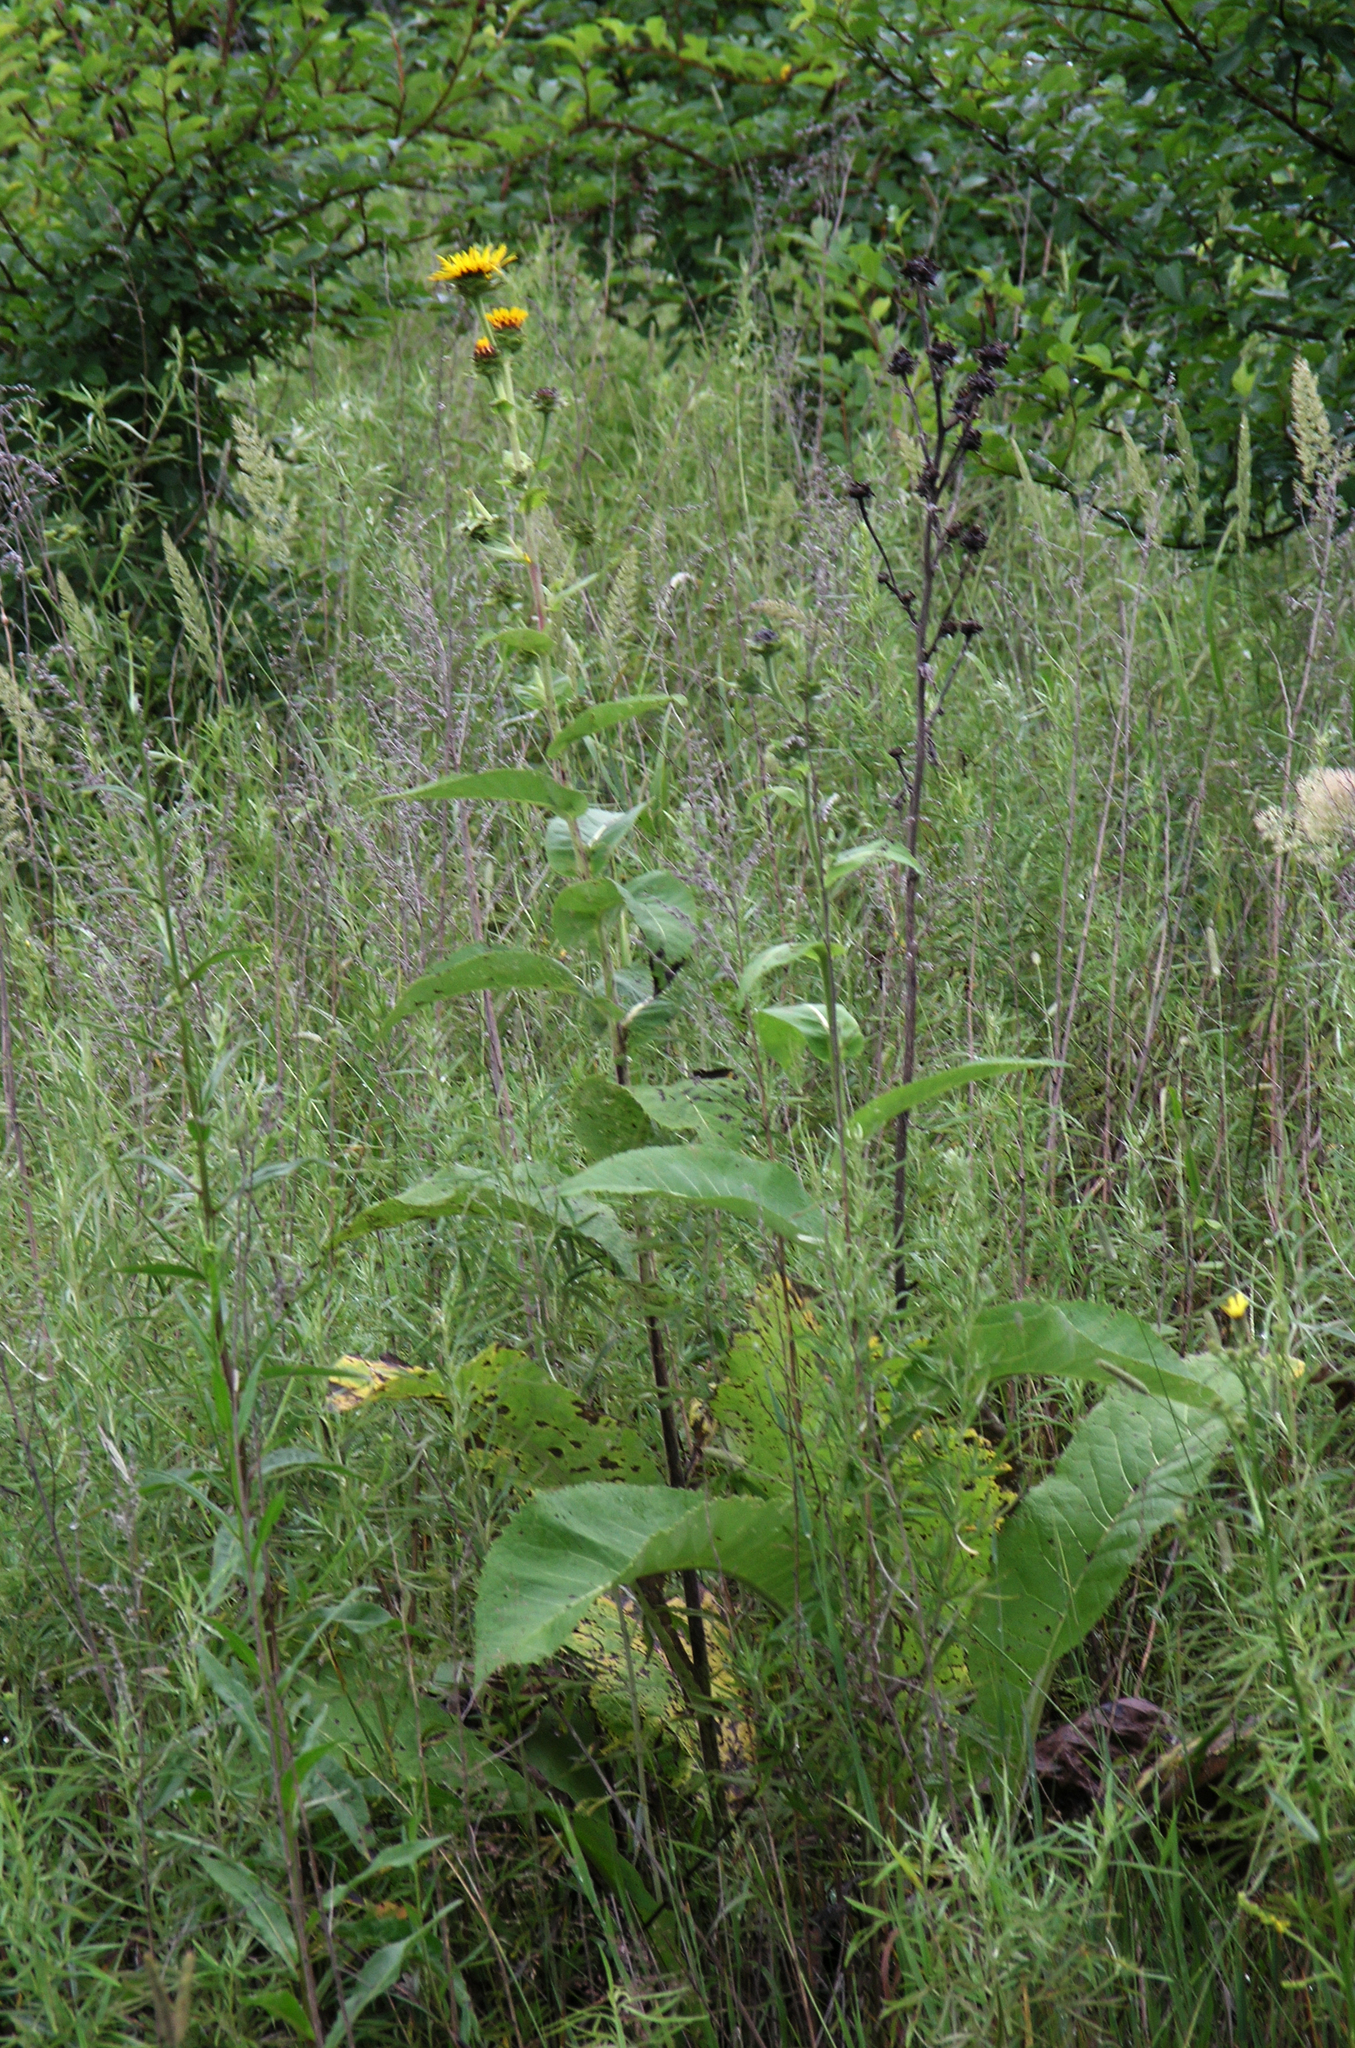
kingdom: Plantae
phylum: Tracheophyta
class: Magnoliopsida
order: Asterales
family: Asteraceae
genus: Inula
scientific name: Inula helenium
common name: Elecampane
